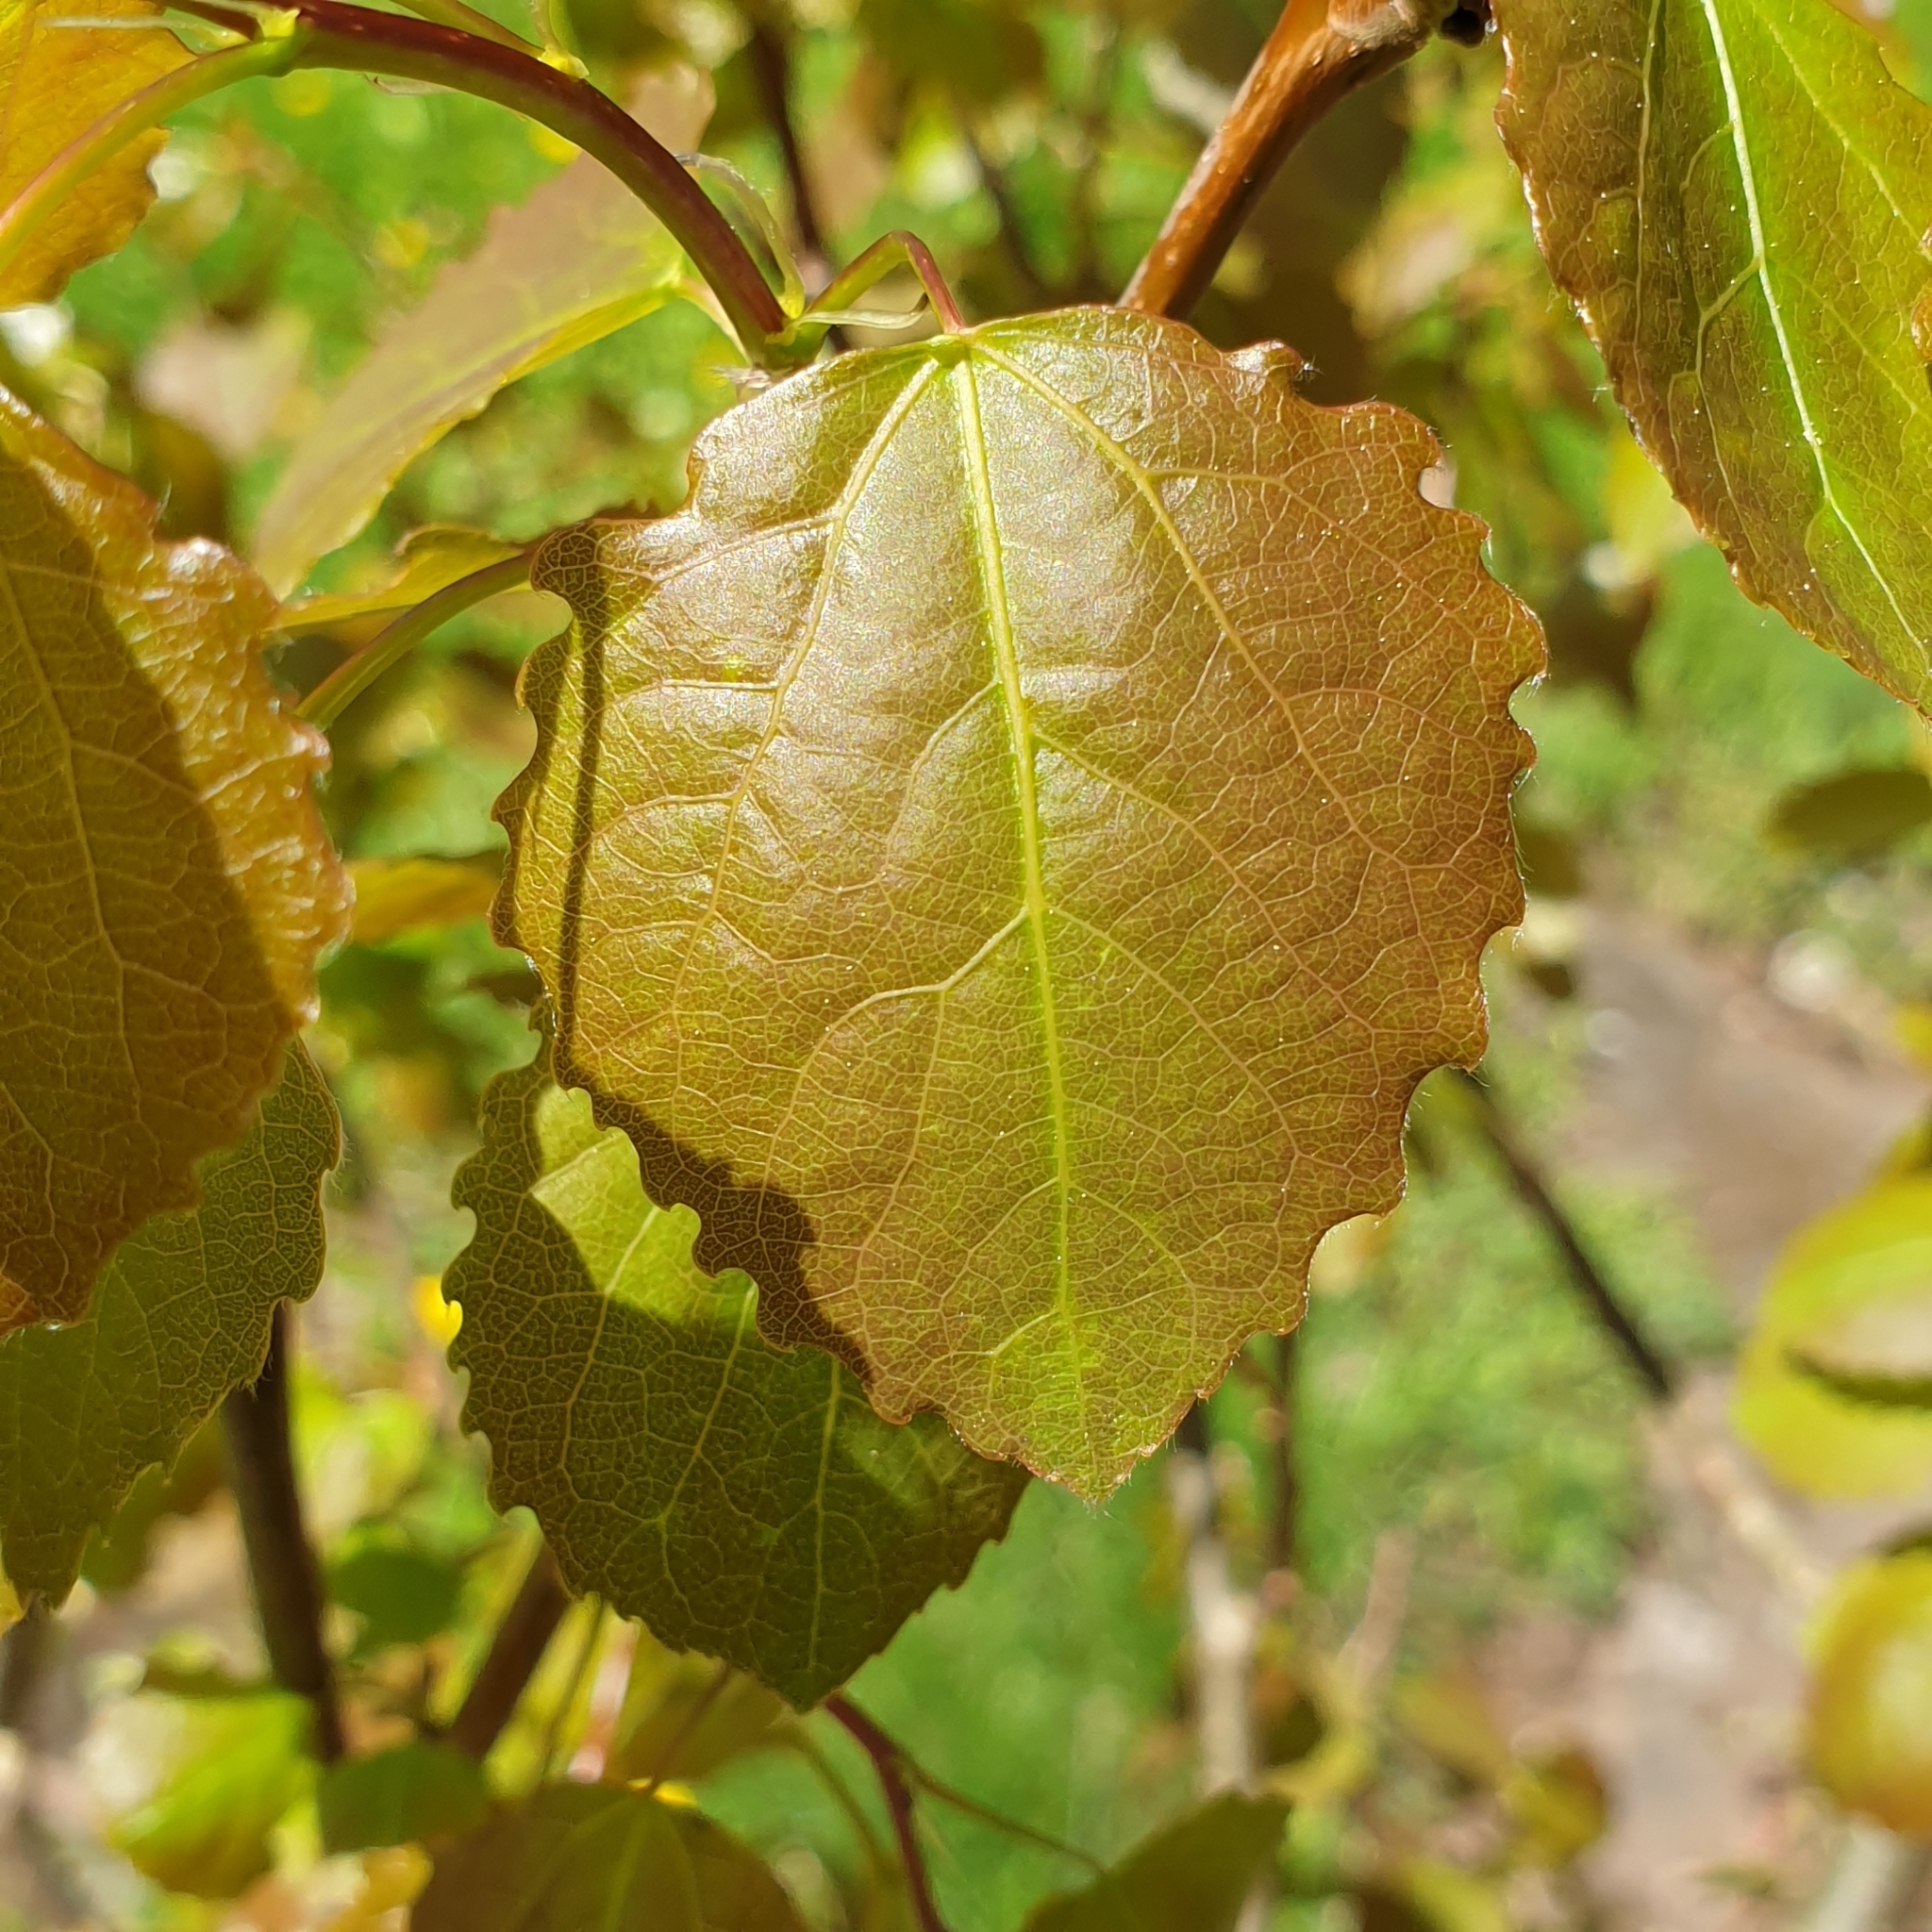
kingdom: Plantae
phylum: Tracheophyta
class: Magnoliopsida
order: Malpighiales
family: Salicaceae
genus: Populus
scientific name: Populus tremula
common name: European aspen
